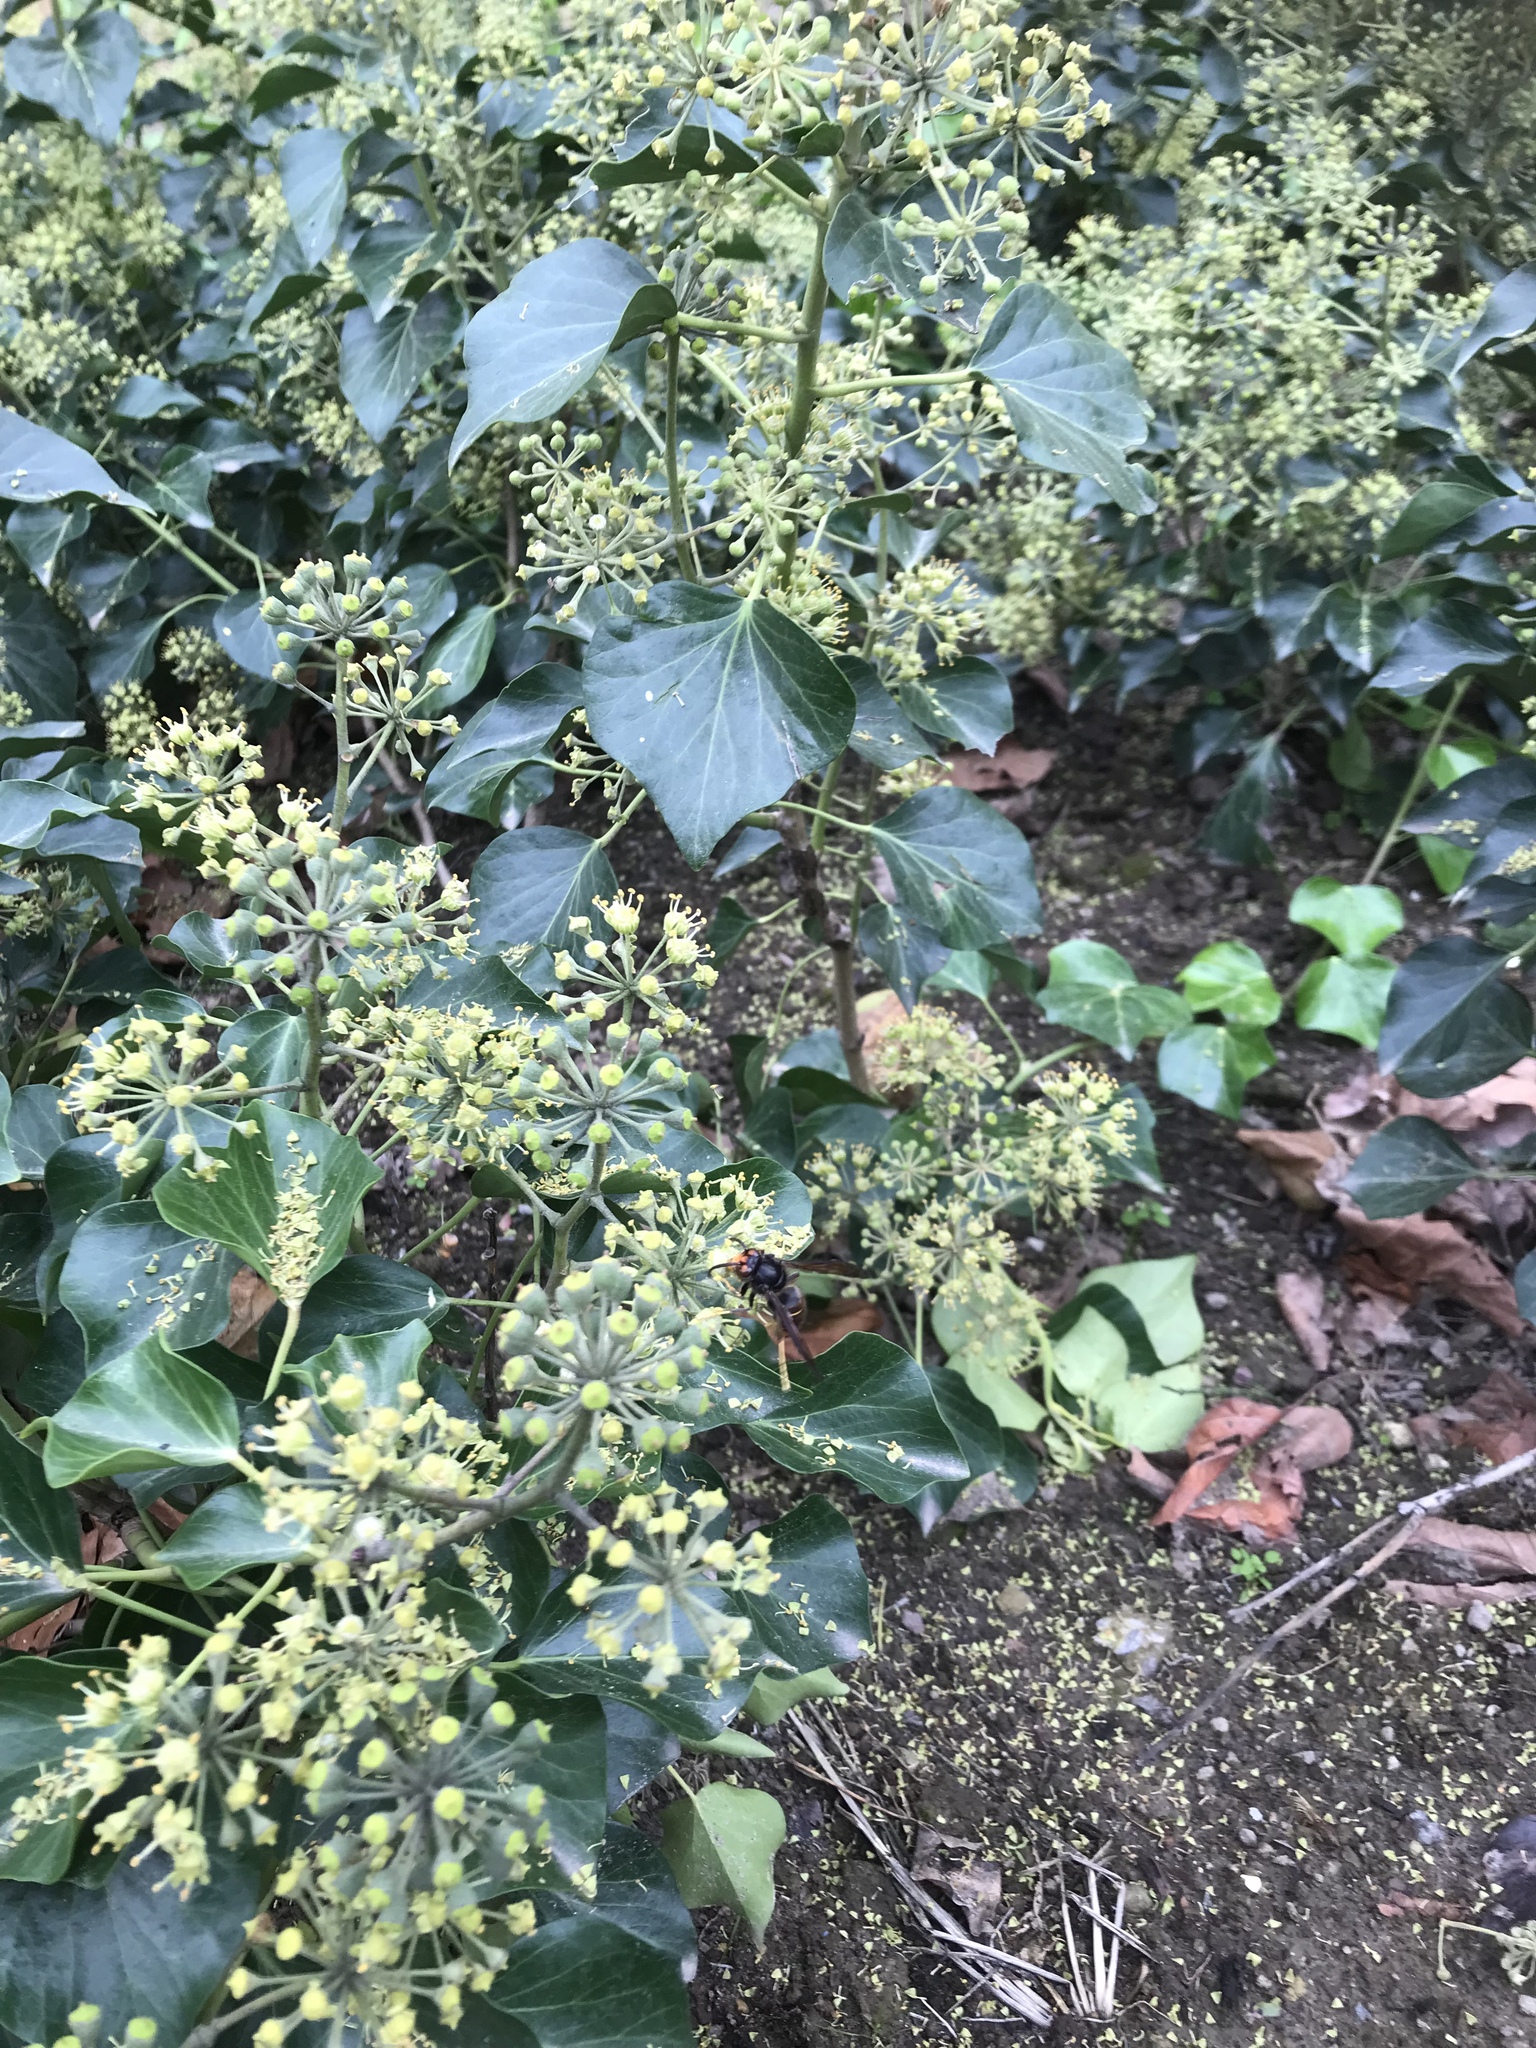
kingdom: Animalia
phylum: Arthropoda
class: Insecta
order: Hymenoptera
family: Vespidae
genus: Vespa
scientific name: Vespa velutina
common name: Asian hornet
